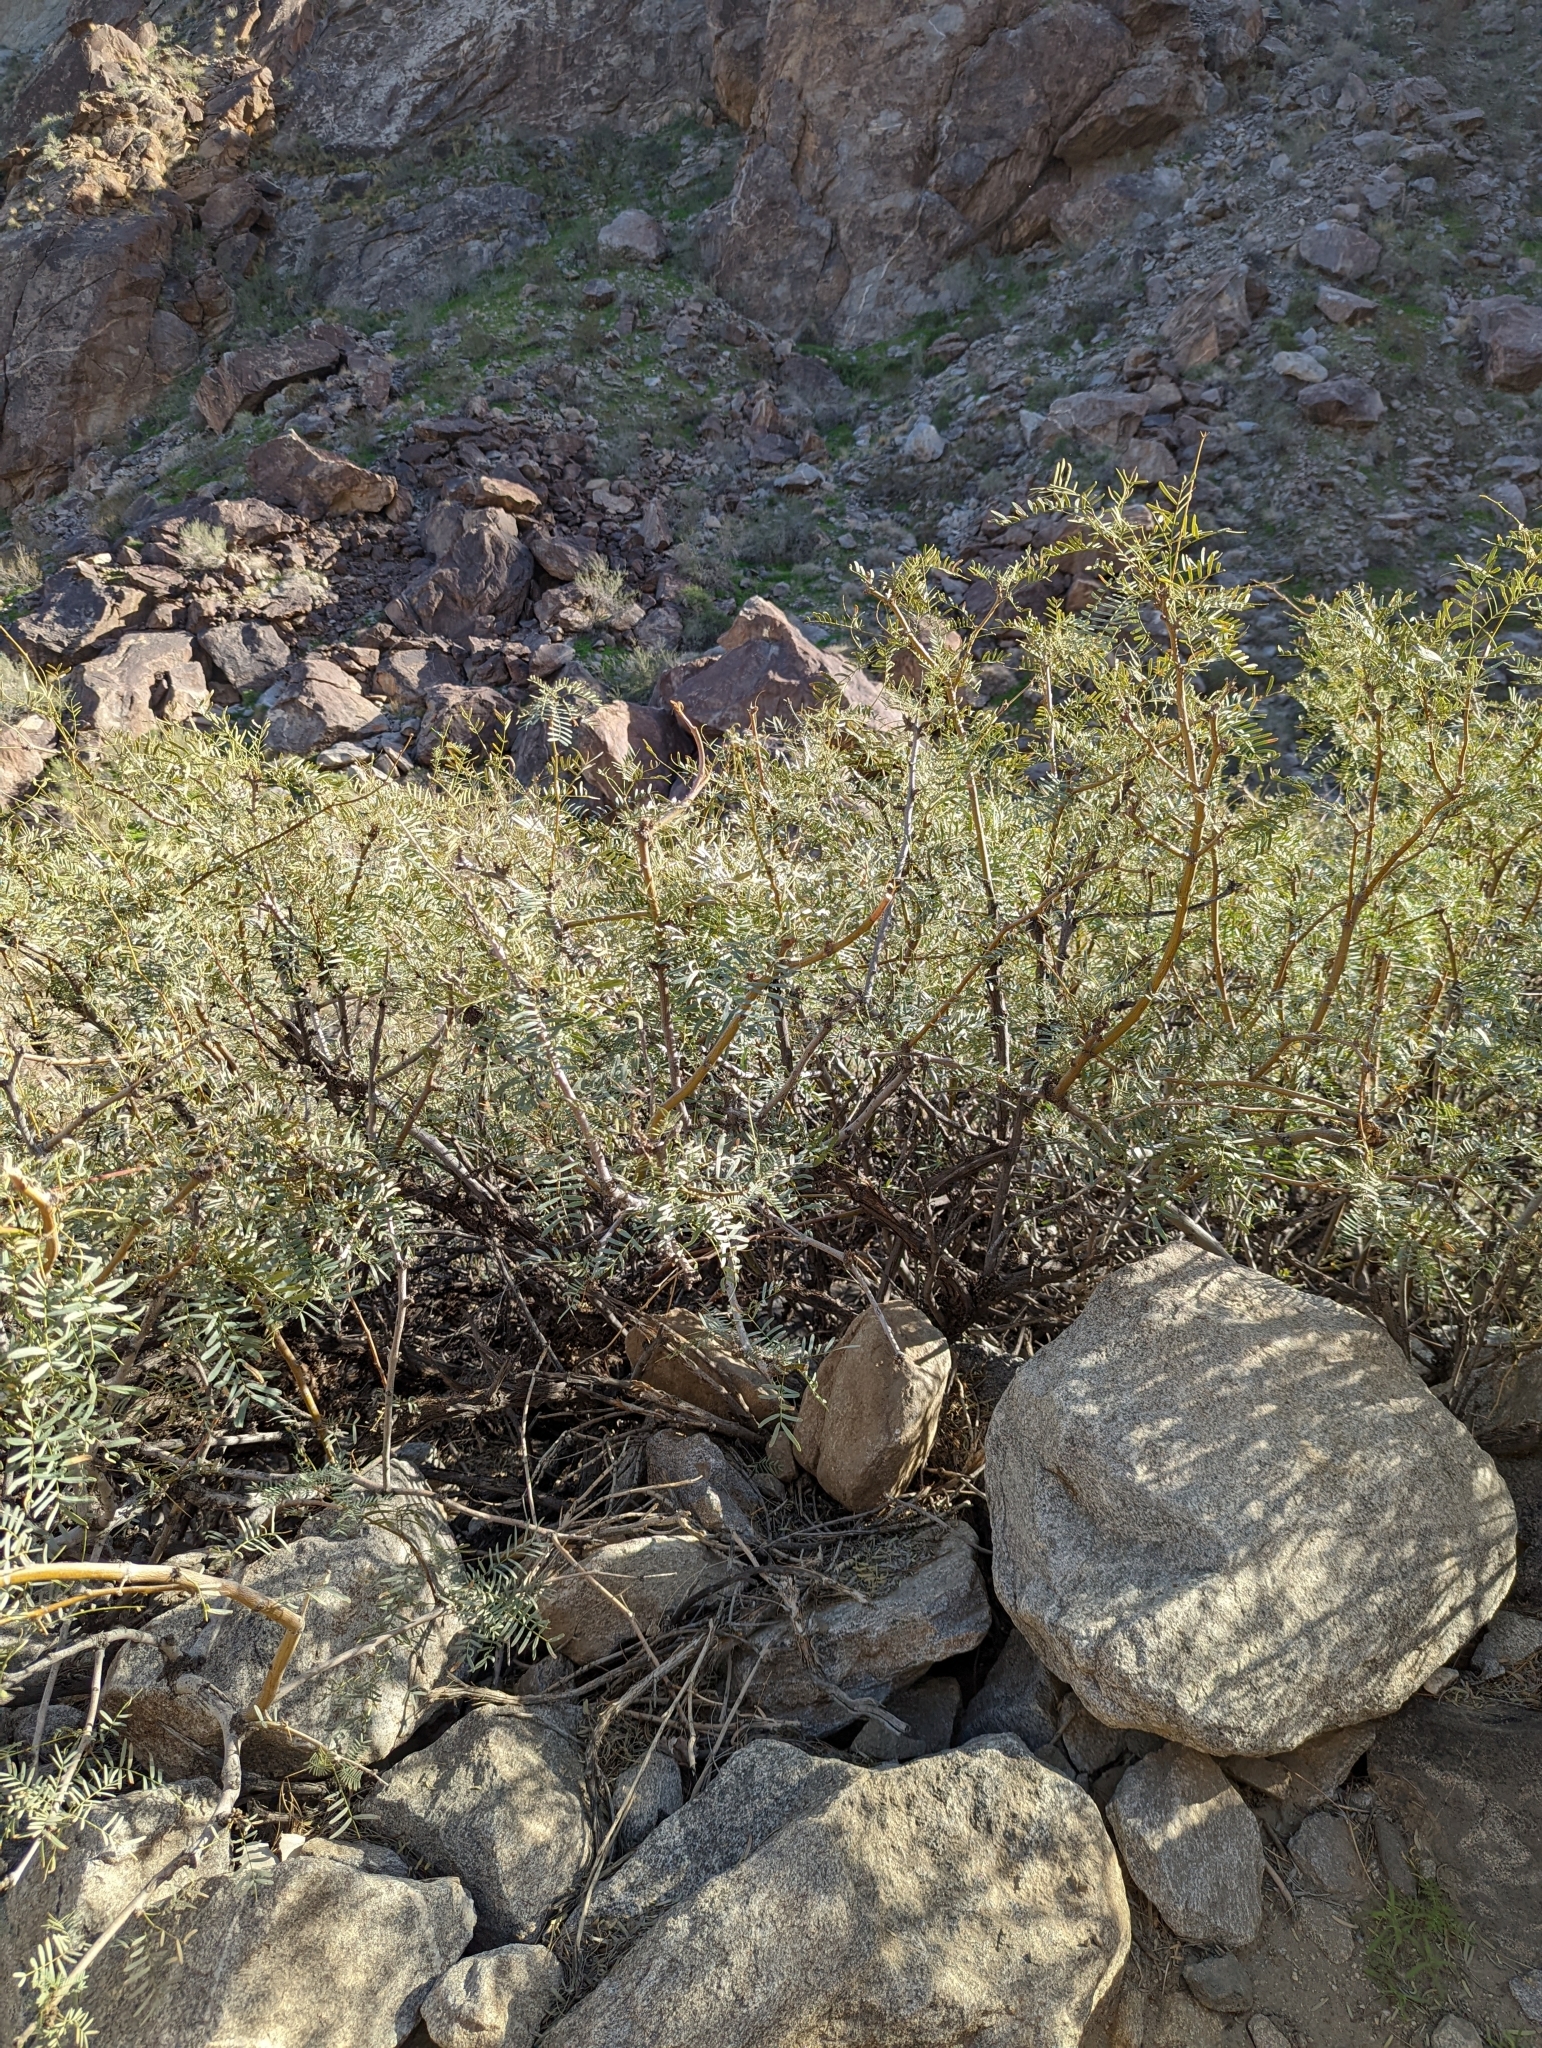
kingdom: Plantae
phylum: Tracheophyta
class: Magnoliopsida
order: Fabales
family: Fabaceae
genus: Prosopis
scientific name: Prosopis pubescens
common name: Screw-bean
